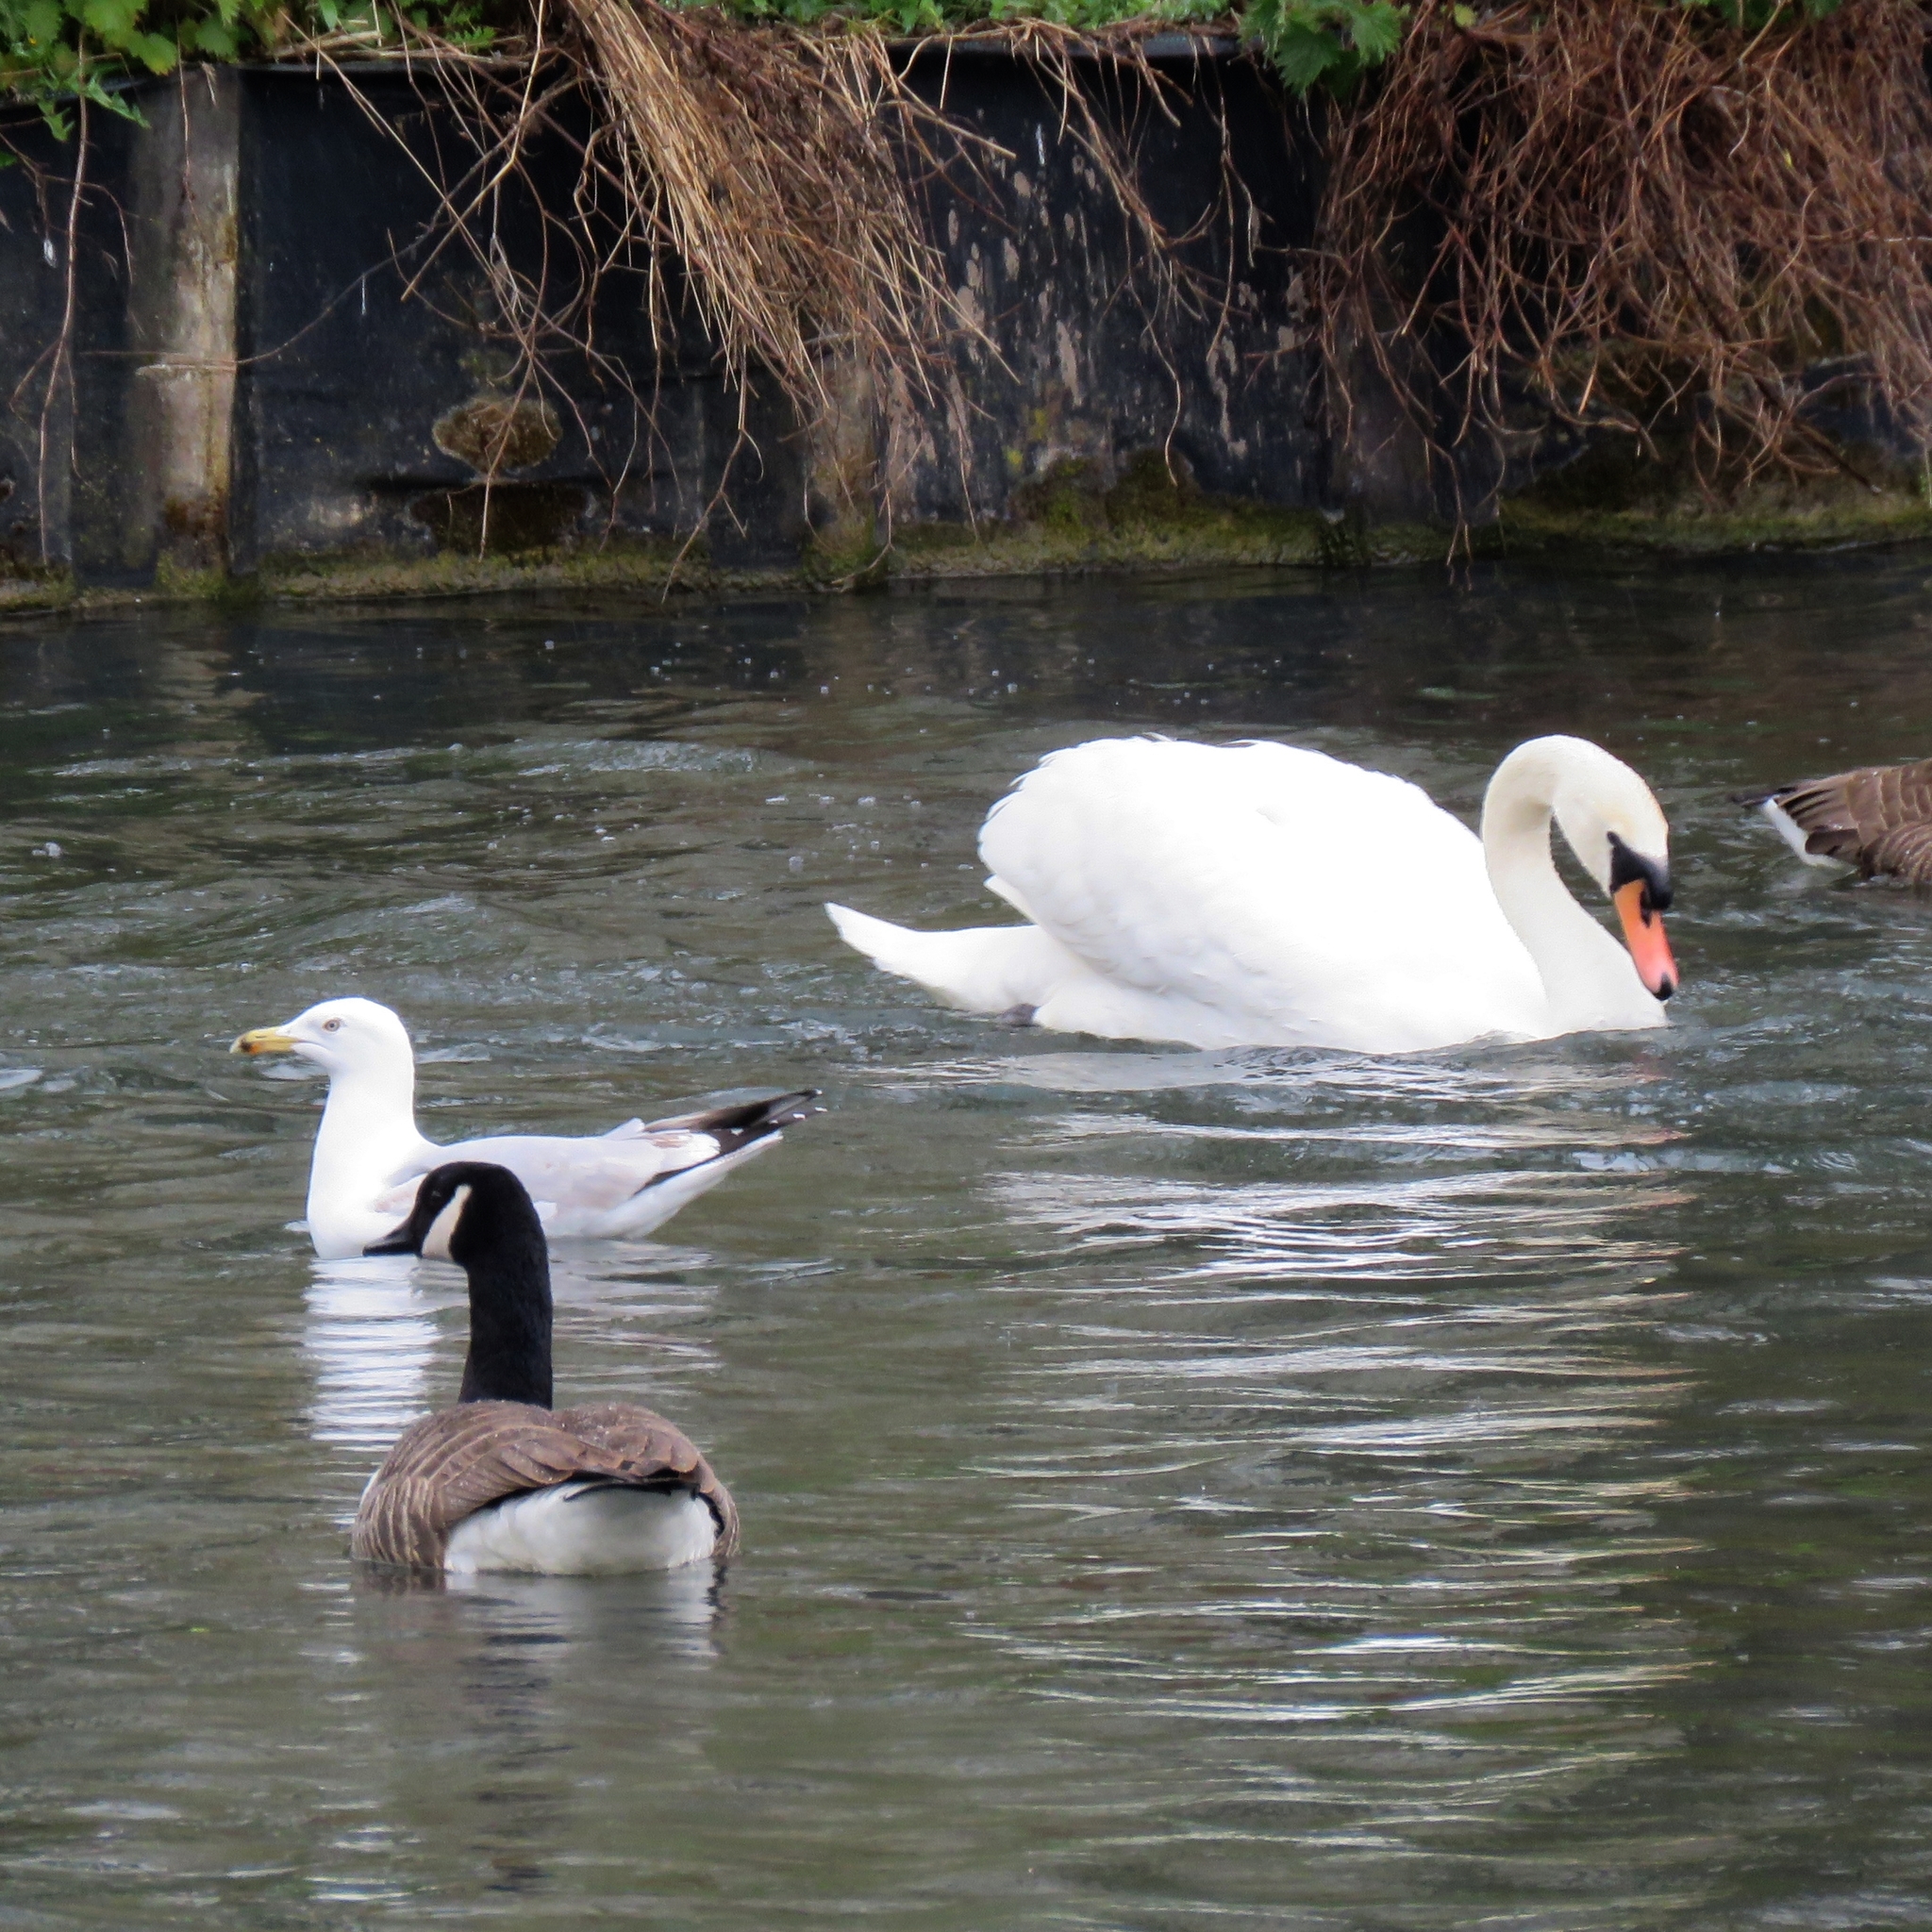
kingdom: Animalia
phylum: Chordata
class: Aves
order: Anseriformes
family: Anatidae
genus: Cygnus
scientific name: Cygnus olor
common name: Mute swan
